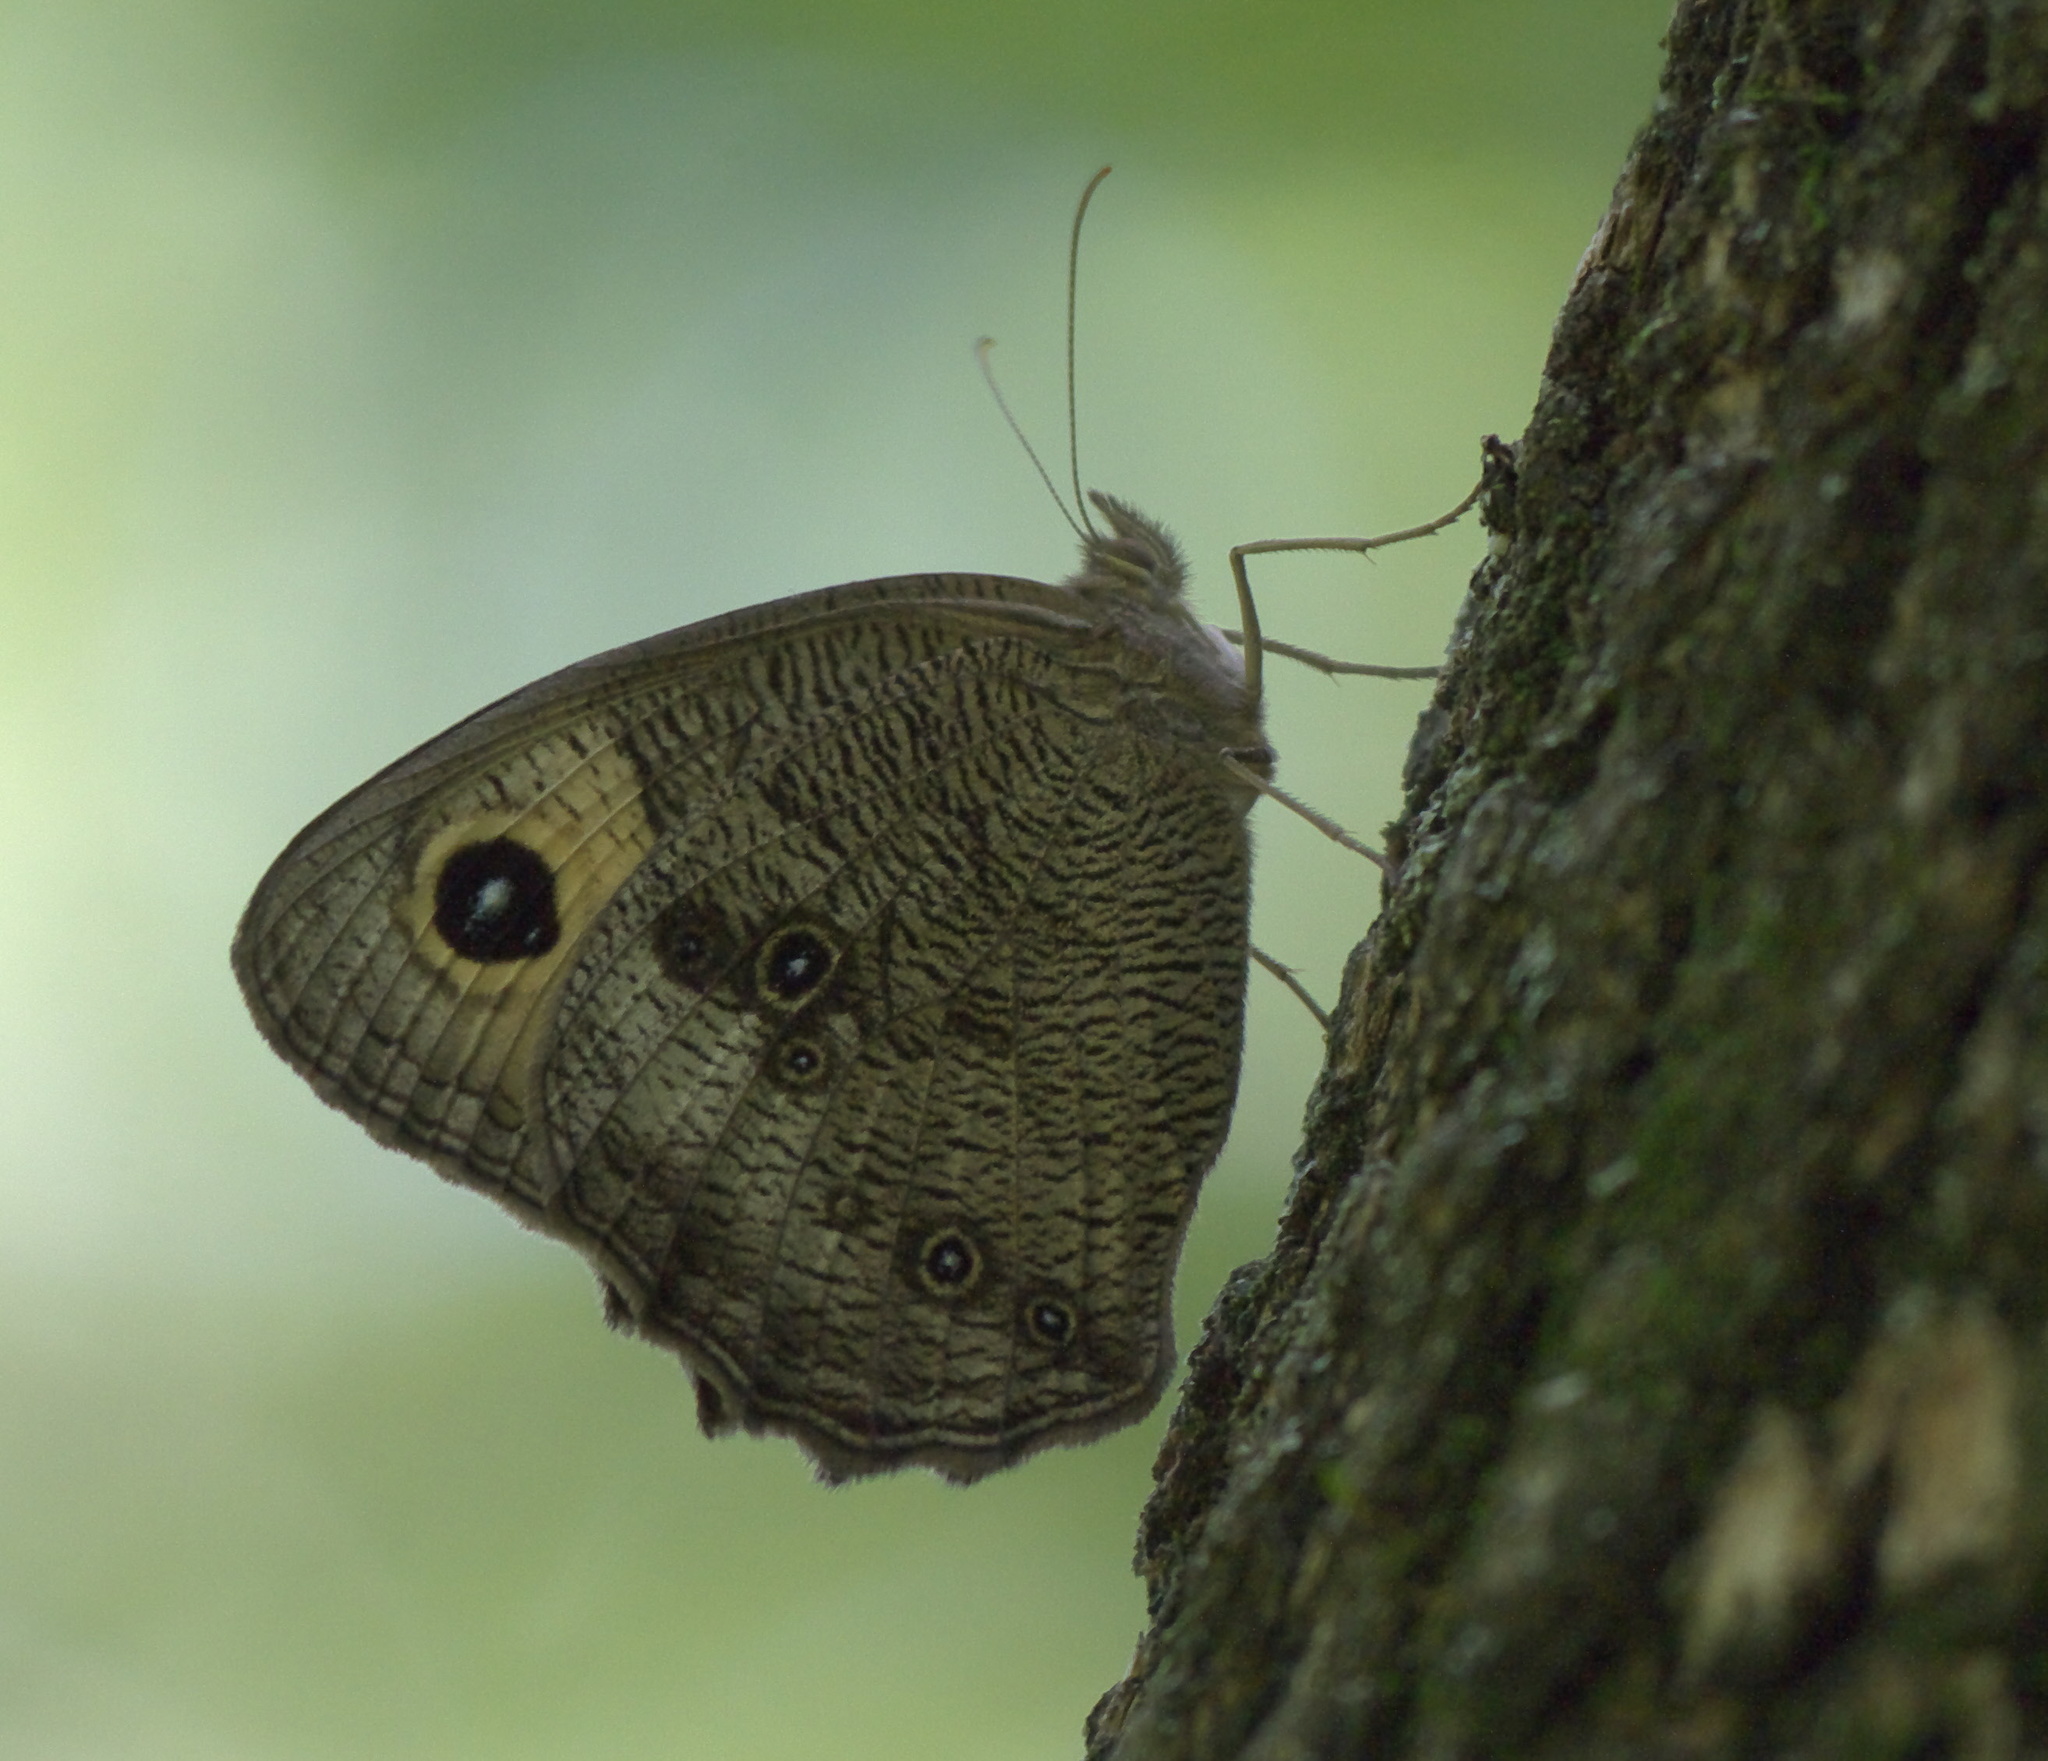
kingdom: Animalia
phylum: Arthropoda
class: Insecta
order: Lepidoptera
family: Nymphalidae
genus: Cercyonis
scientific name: Cercyonis pegala
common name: Common wood-nymph
